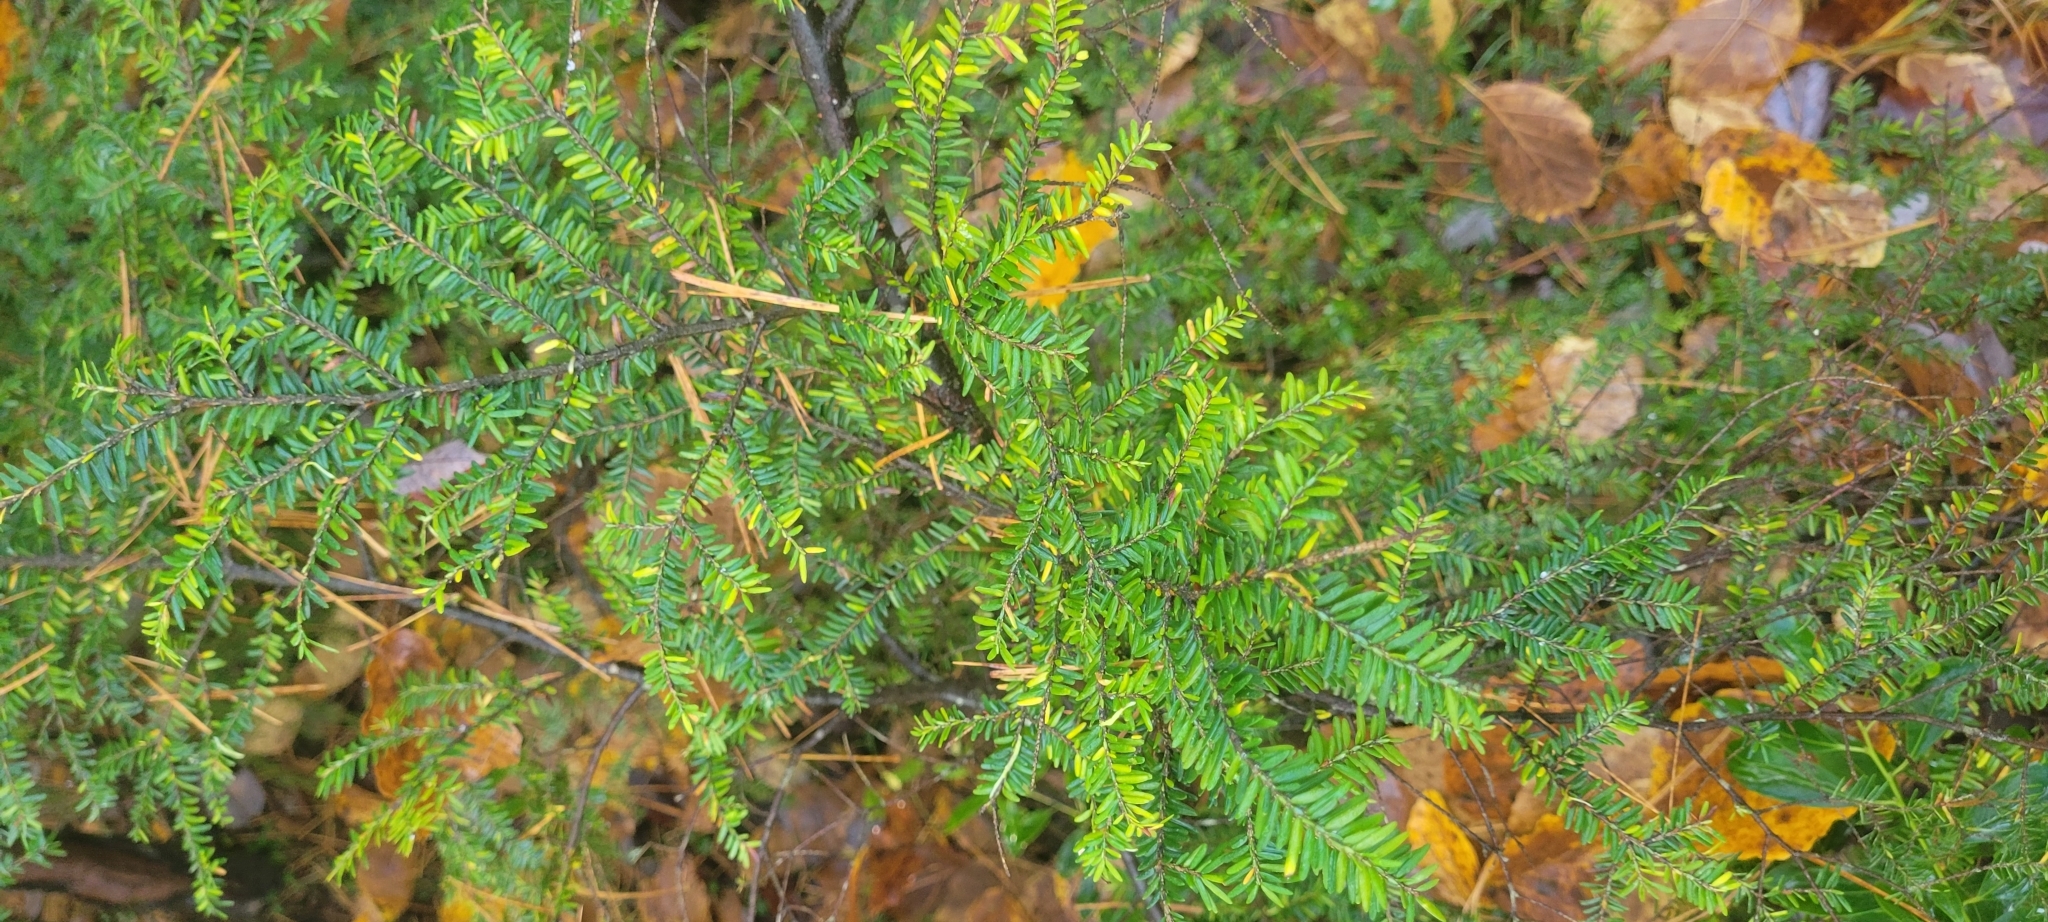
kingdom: Plantae
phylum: Tracheophyta
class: Pinopsida
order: Pinales
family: Pinaceae
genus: Tsuga
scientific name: Tsuga canadensis
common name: Eastern hemlock
